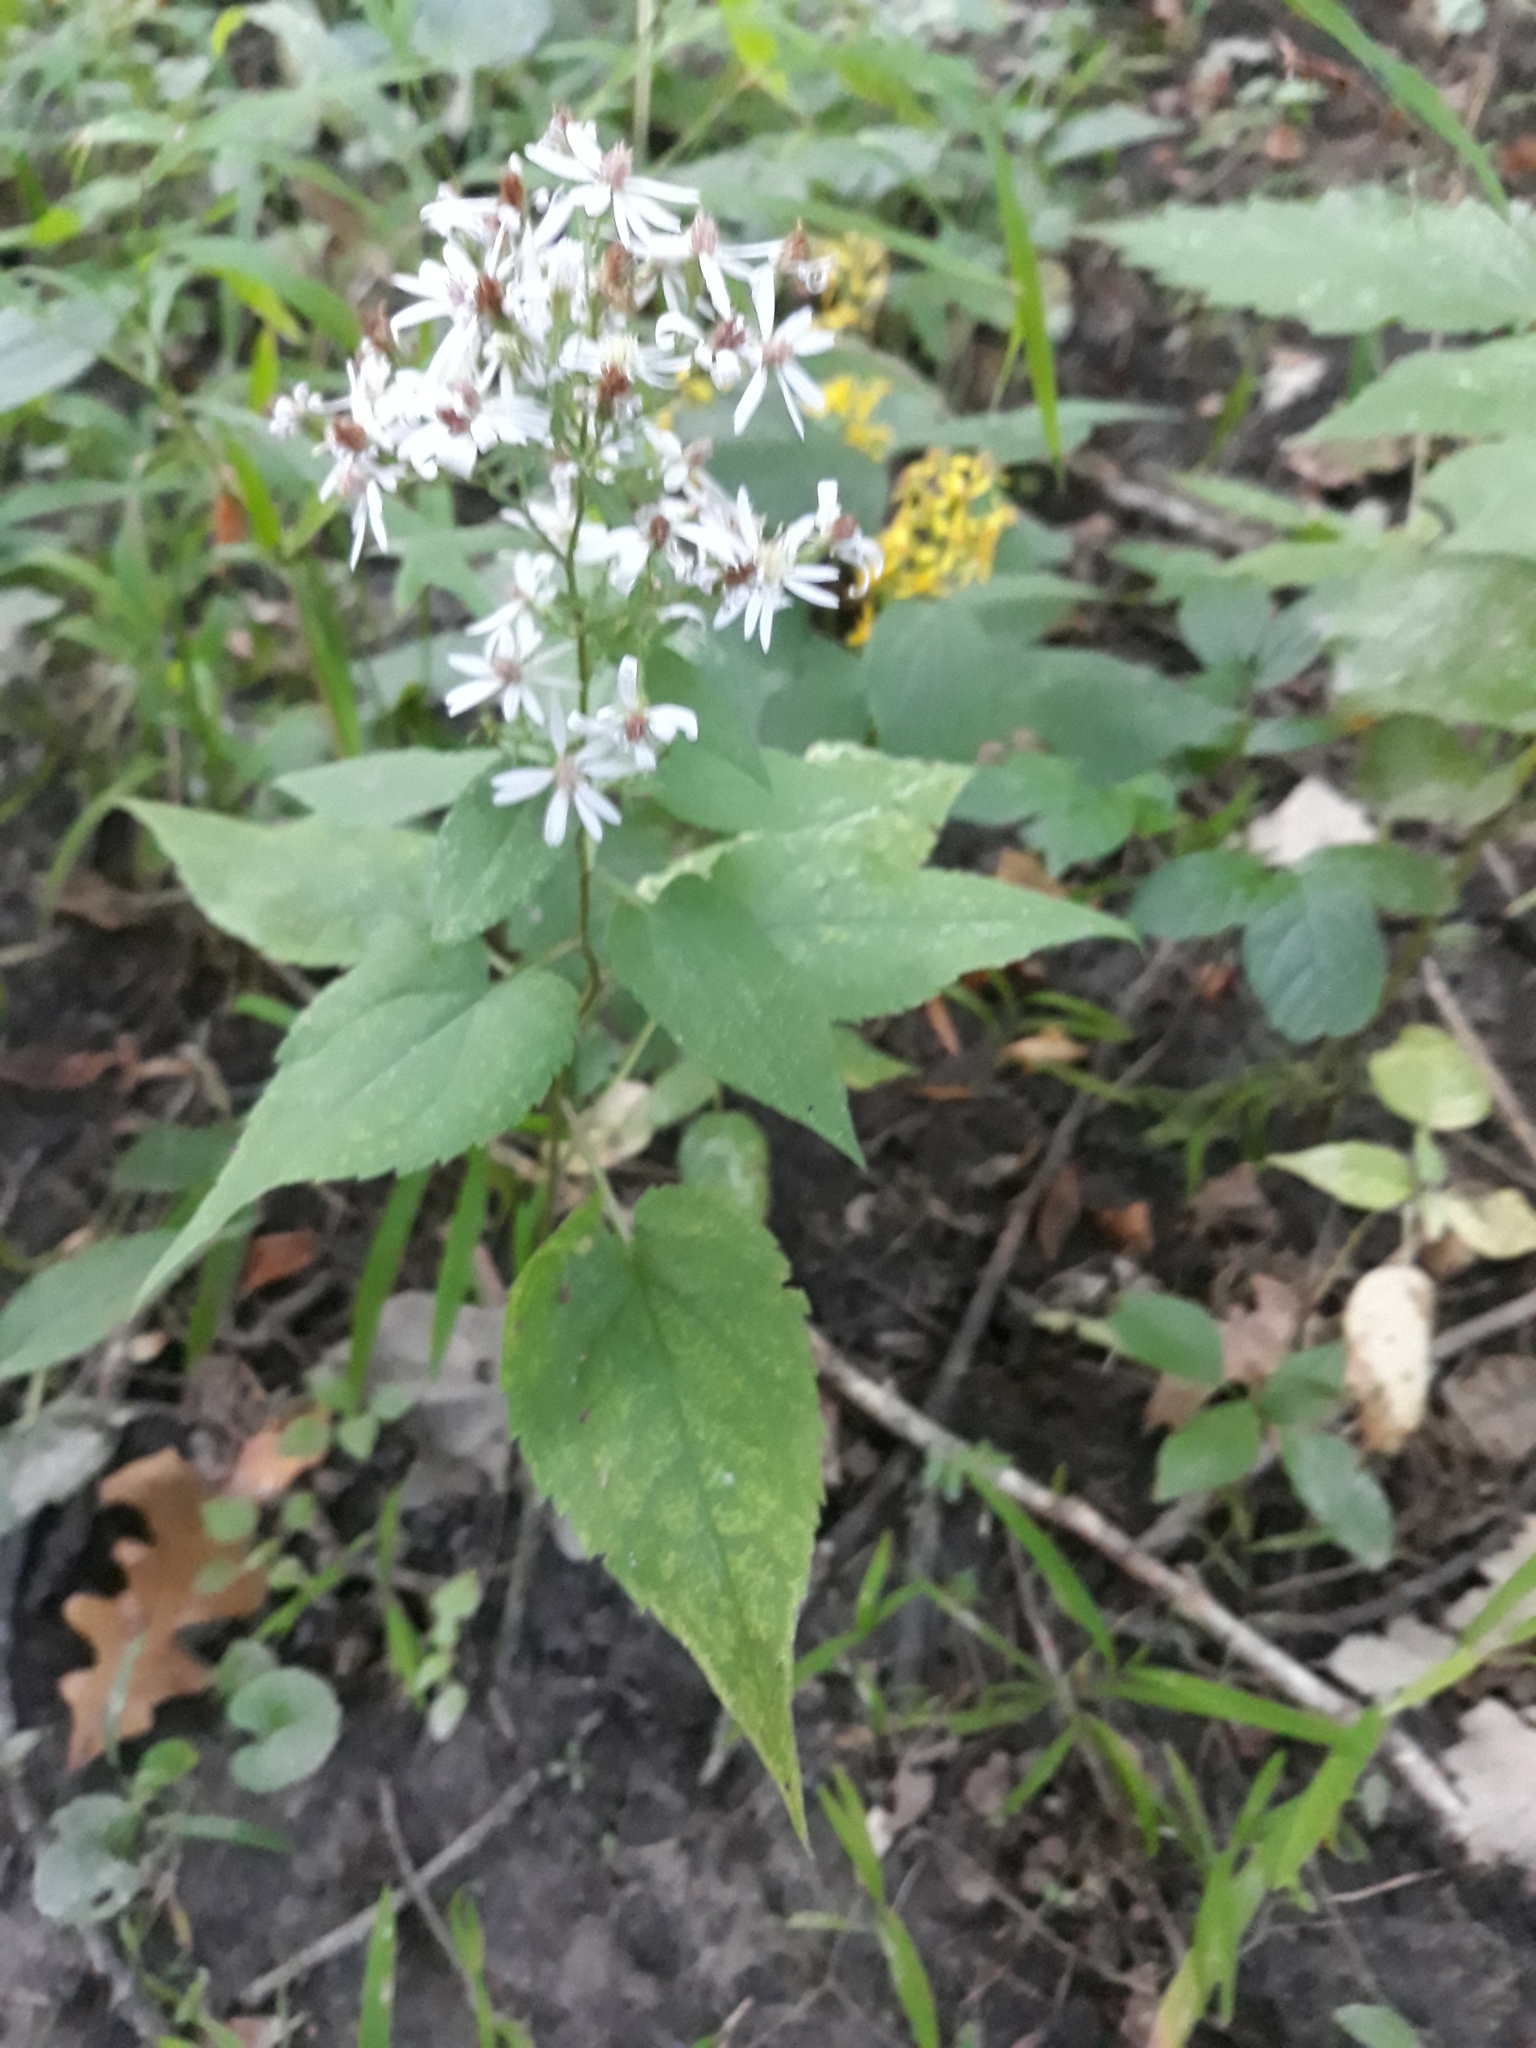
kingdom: Plantae
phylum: Tracheophyta
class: Magnoliopsida
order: Asterales
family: Asteraceae
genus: Symphyotrichum
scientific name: Symphyotrichum cordifolium
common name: Beeweed
